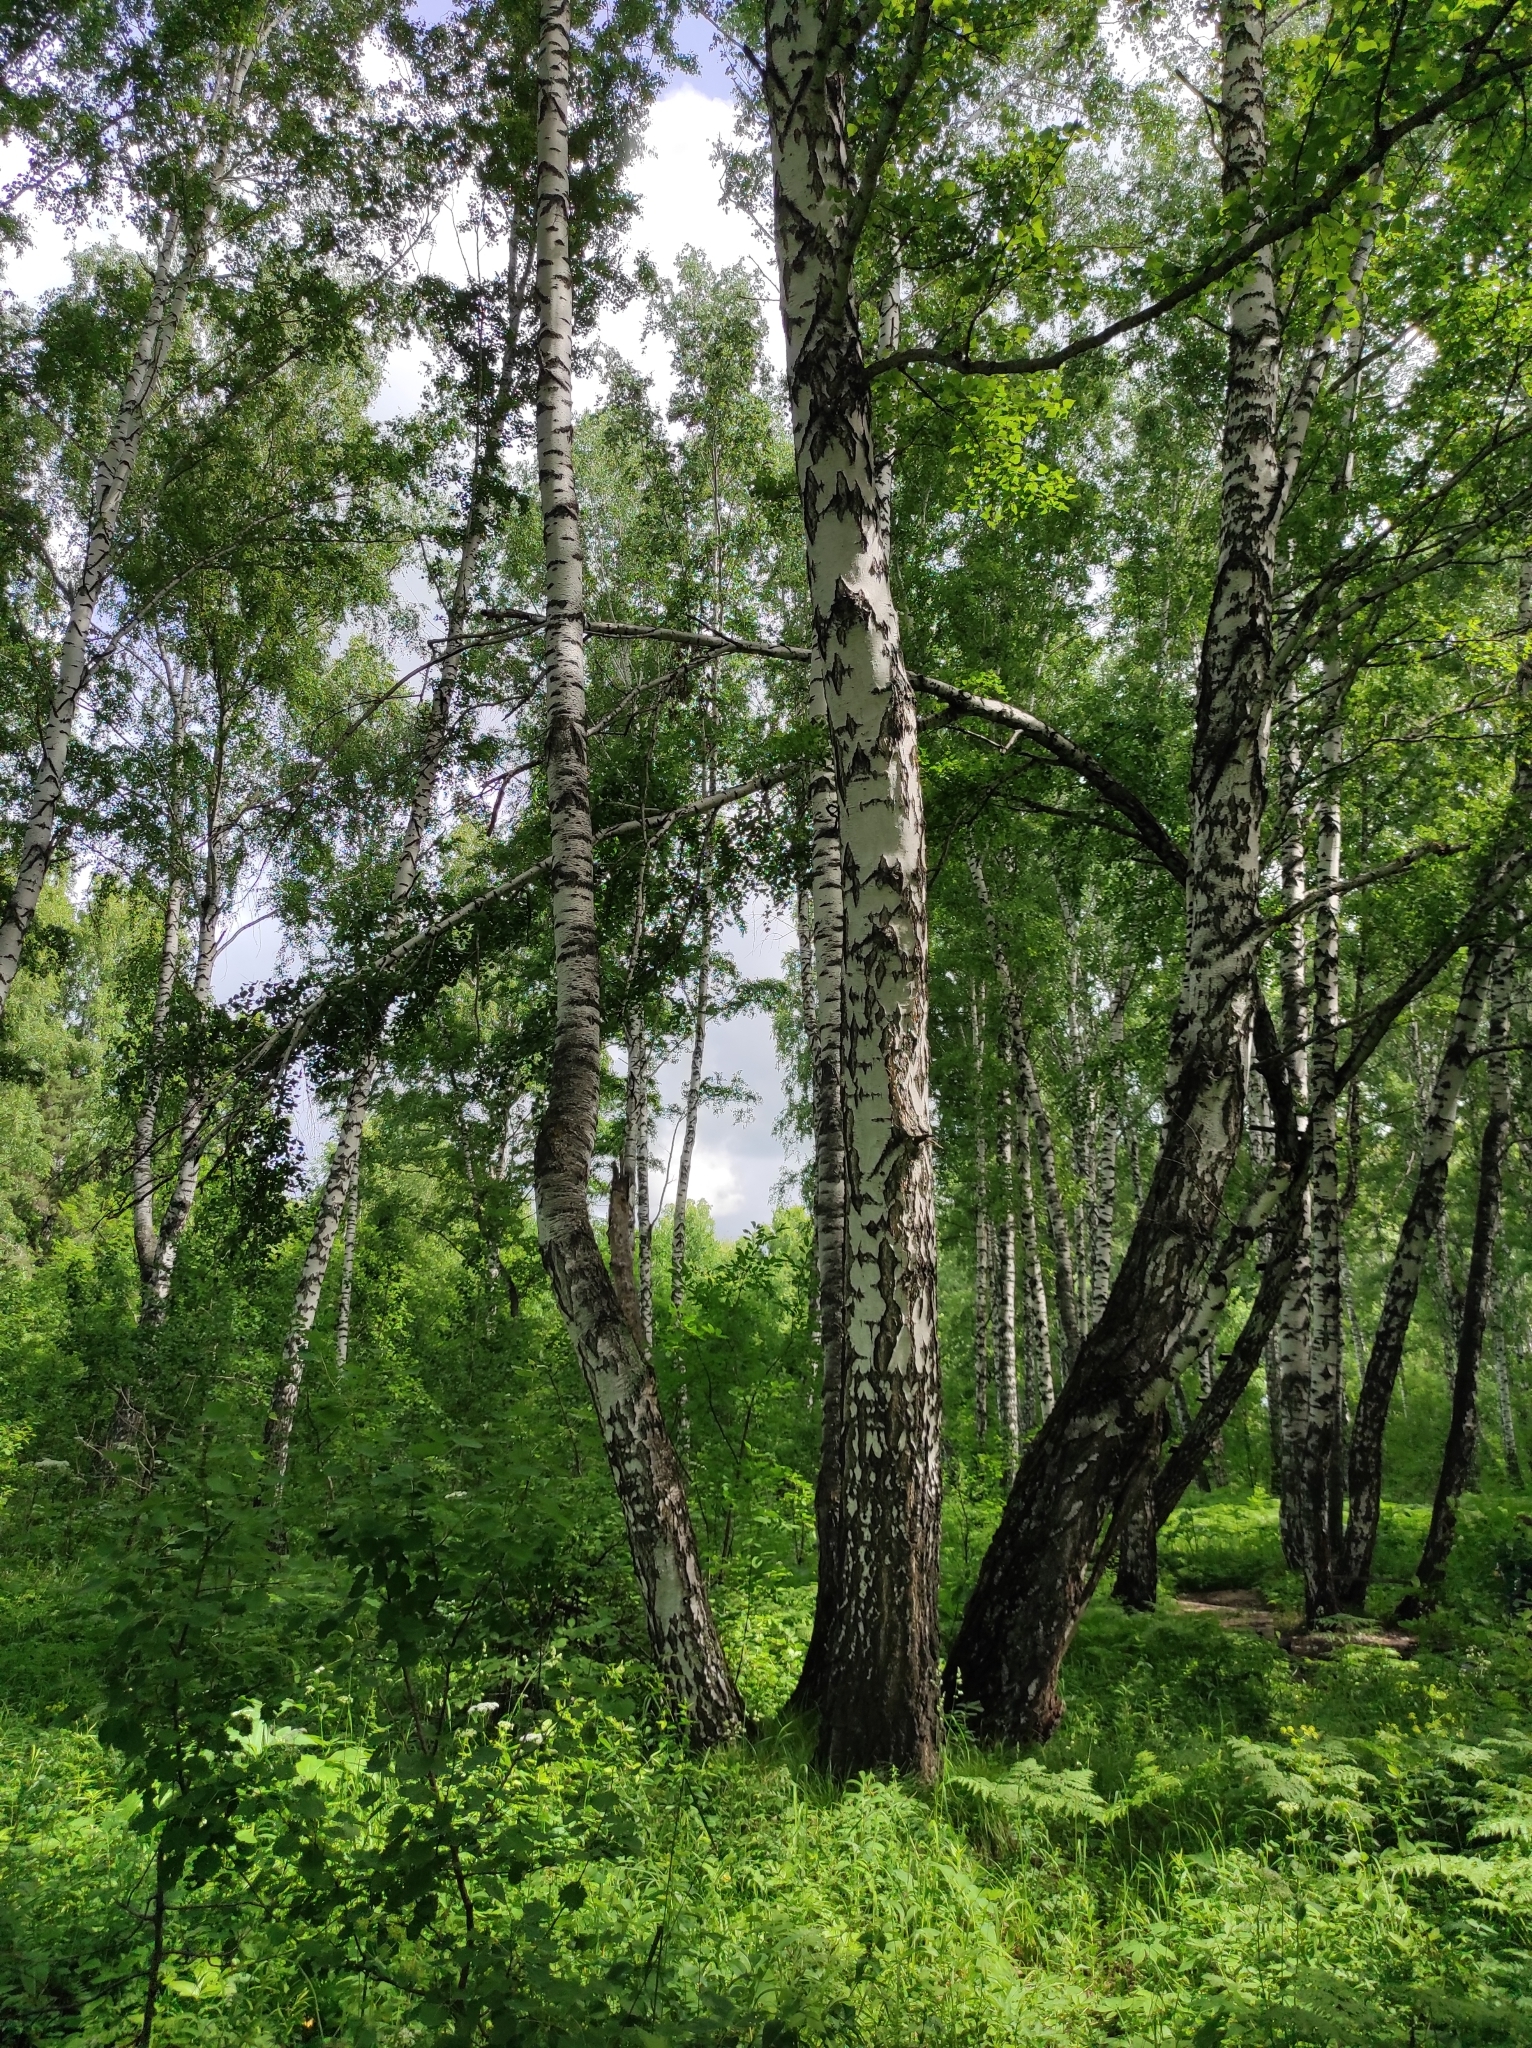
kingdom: Plantae
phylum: Tracheophyta
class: Magnoliopsida
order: Fagales
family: Betulaceae
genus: Betula
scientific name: Betula pendula
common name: Silver birch
